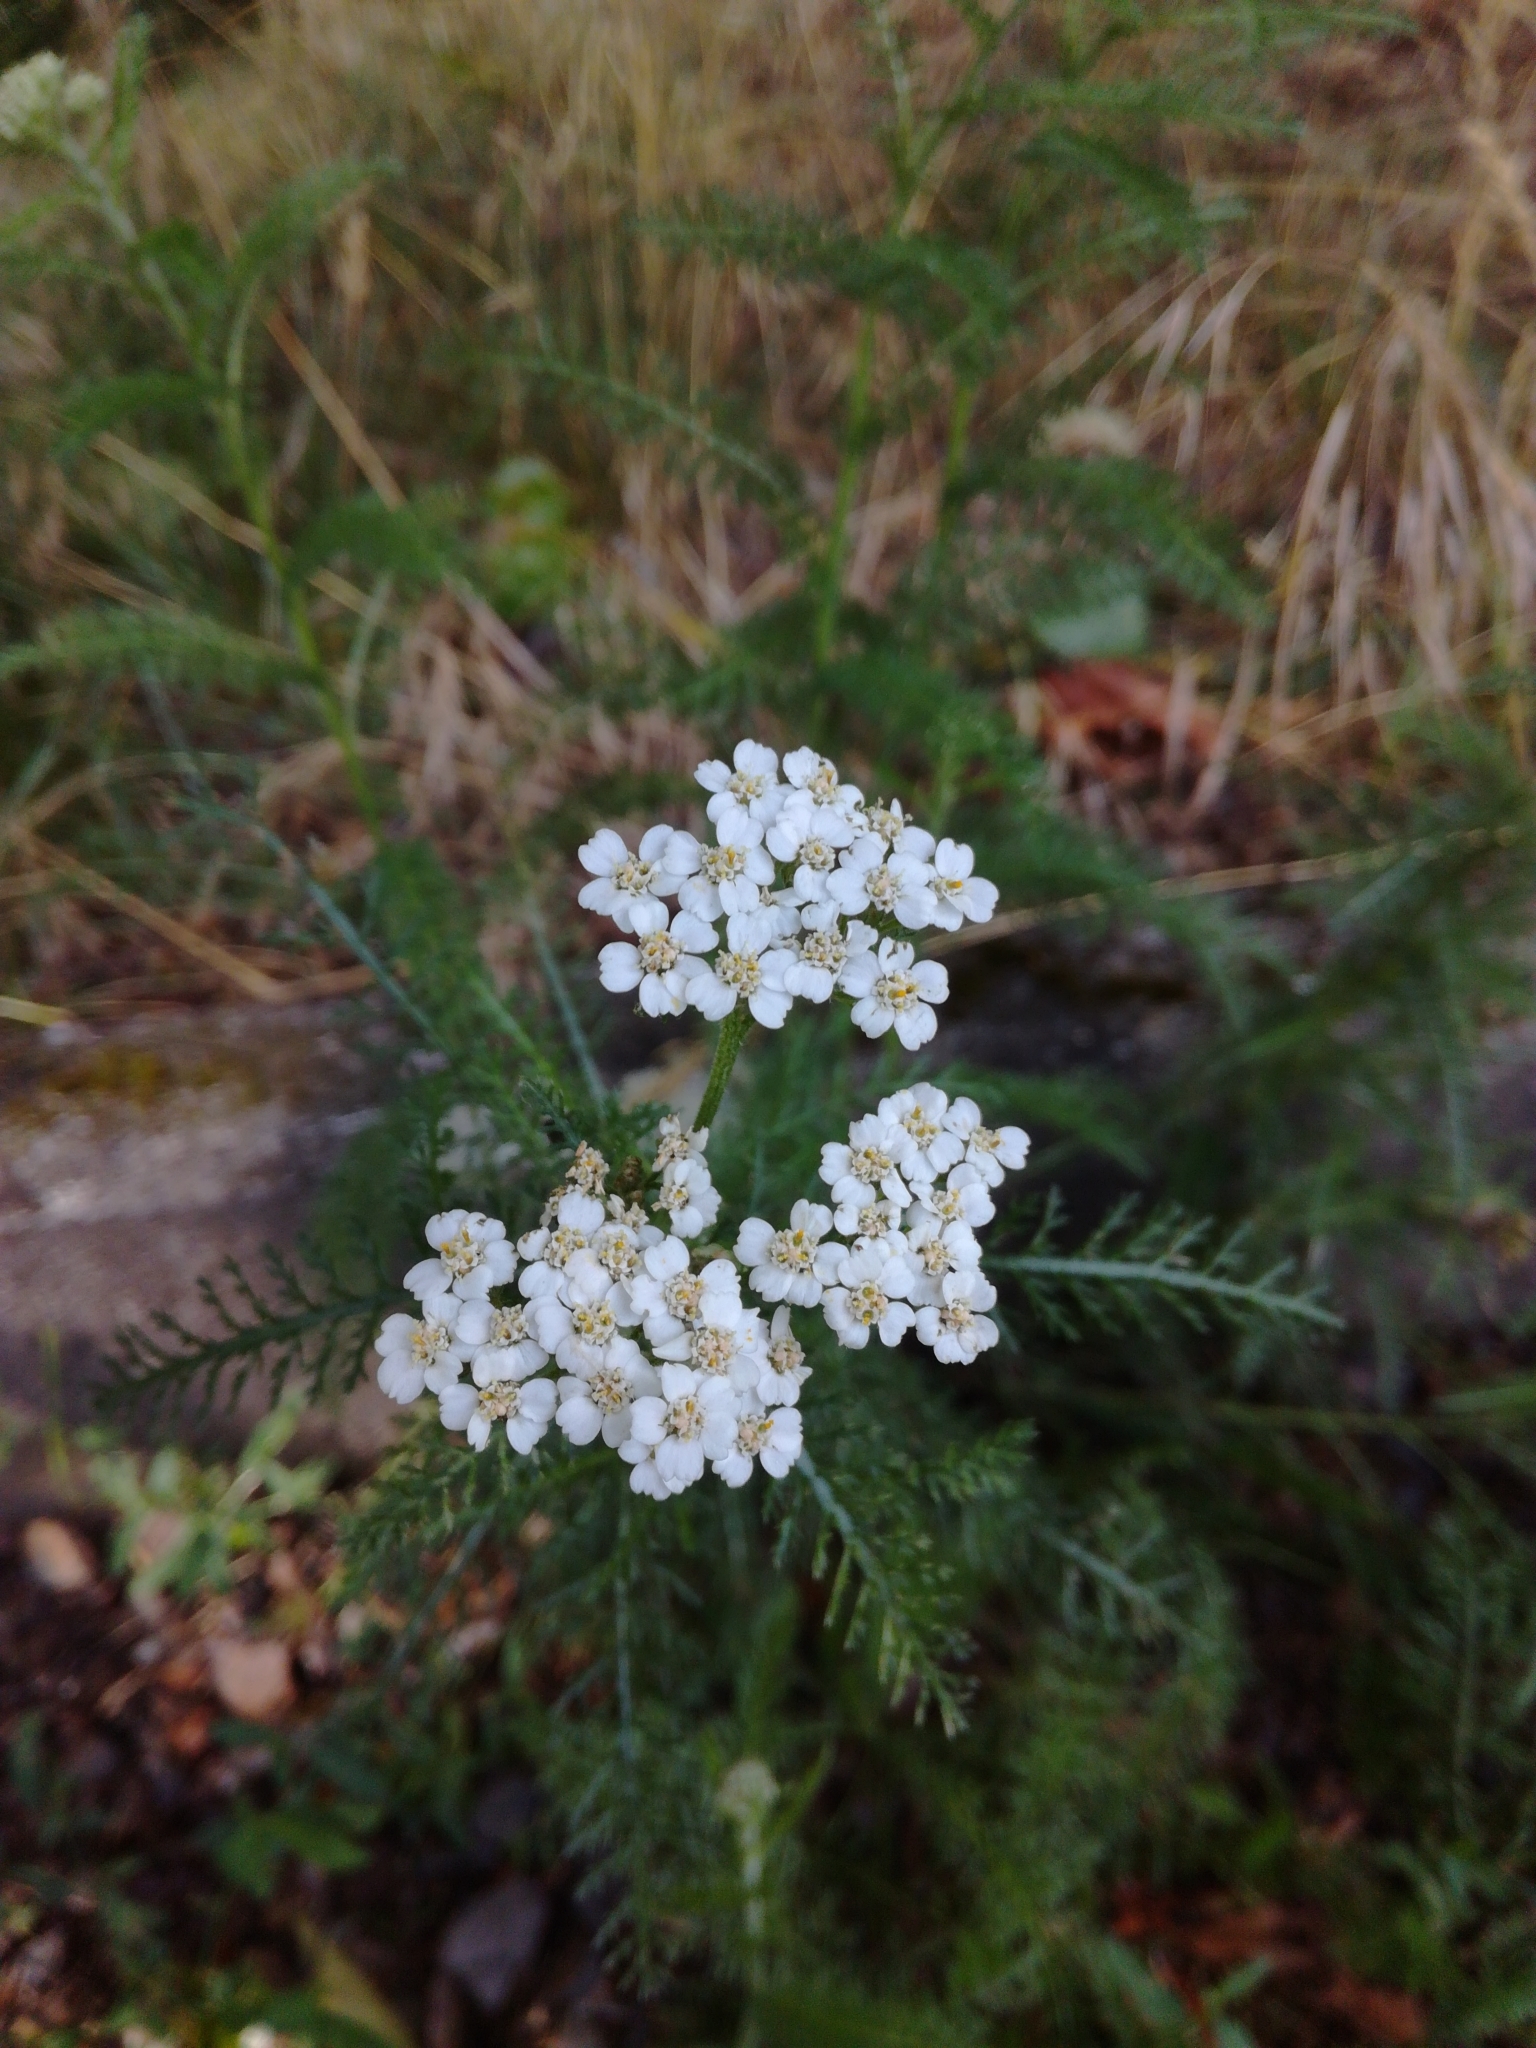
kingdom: Plantae
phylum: Tracheophyta
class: Magnoliopsida
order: Asterales
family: Asteraceae
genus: Achillea
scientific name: Achillea millefolium
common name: Yarrow
